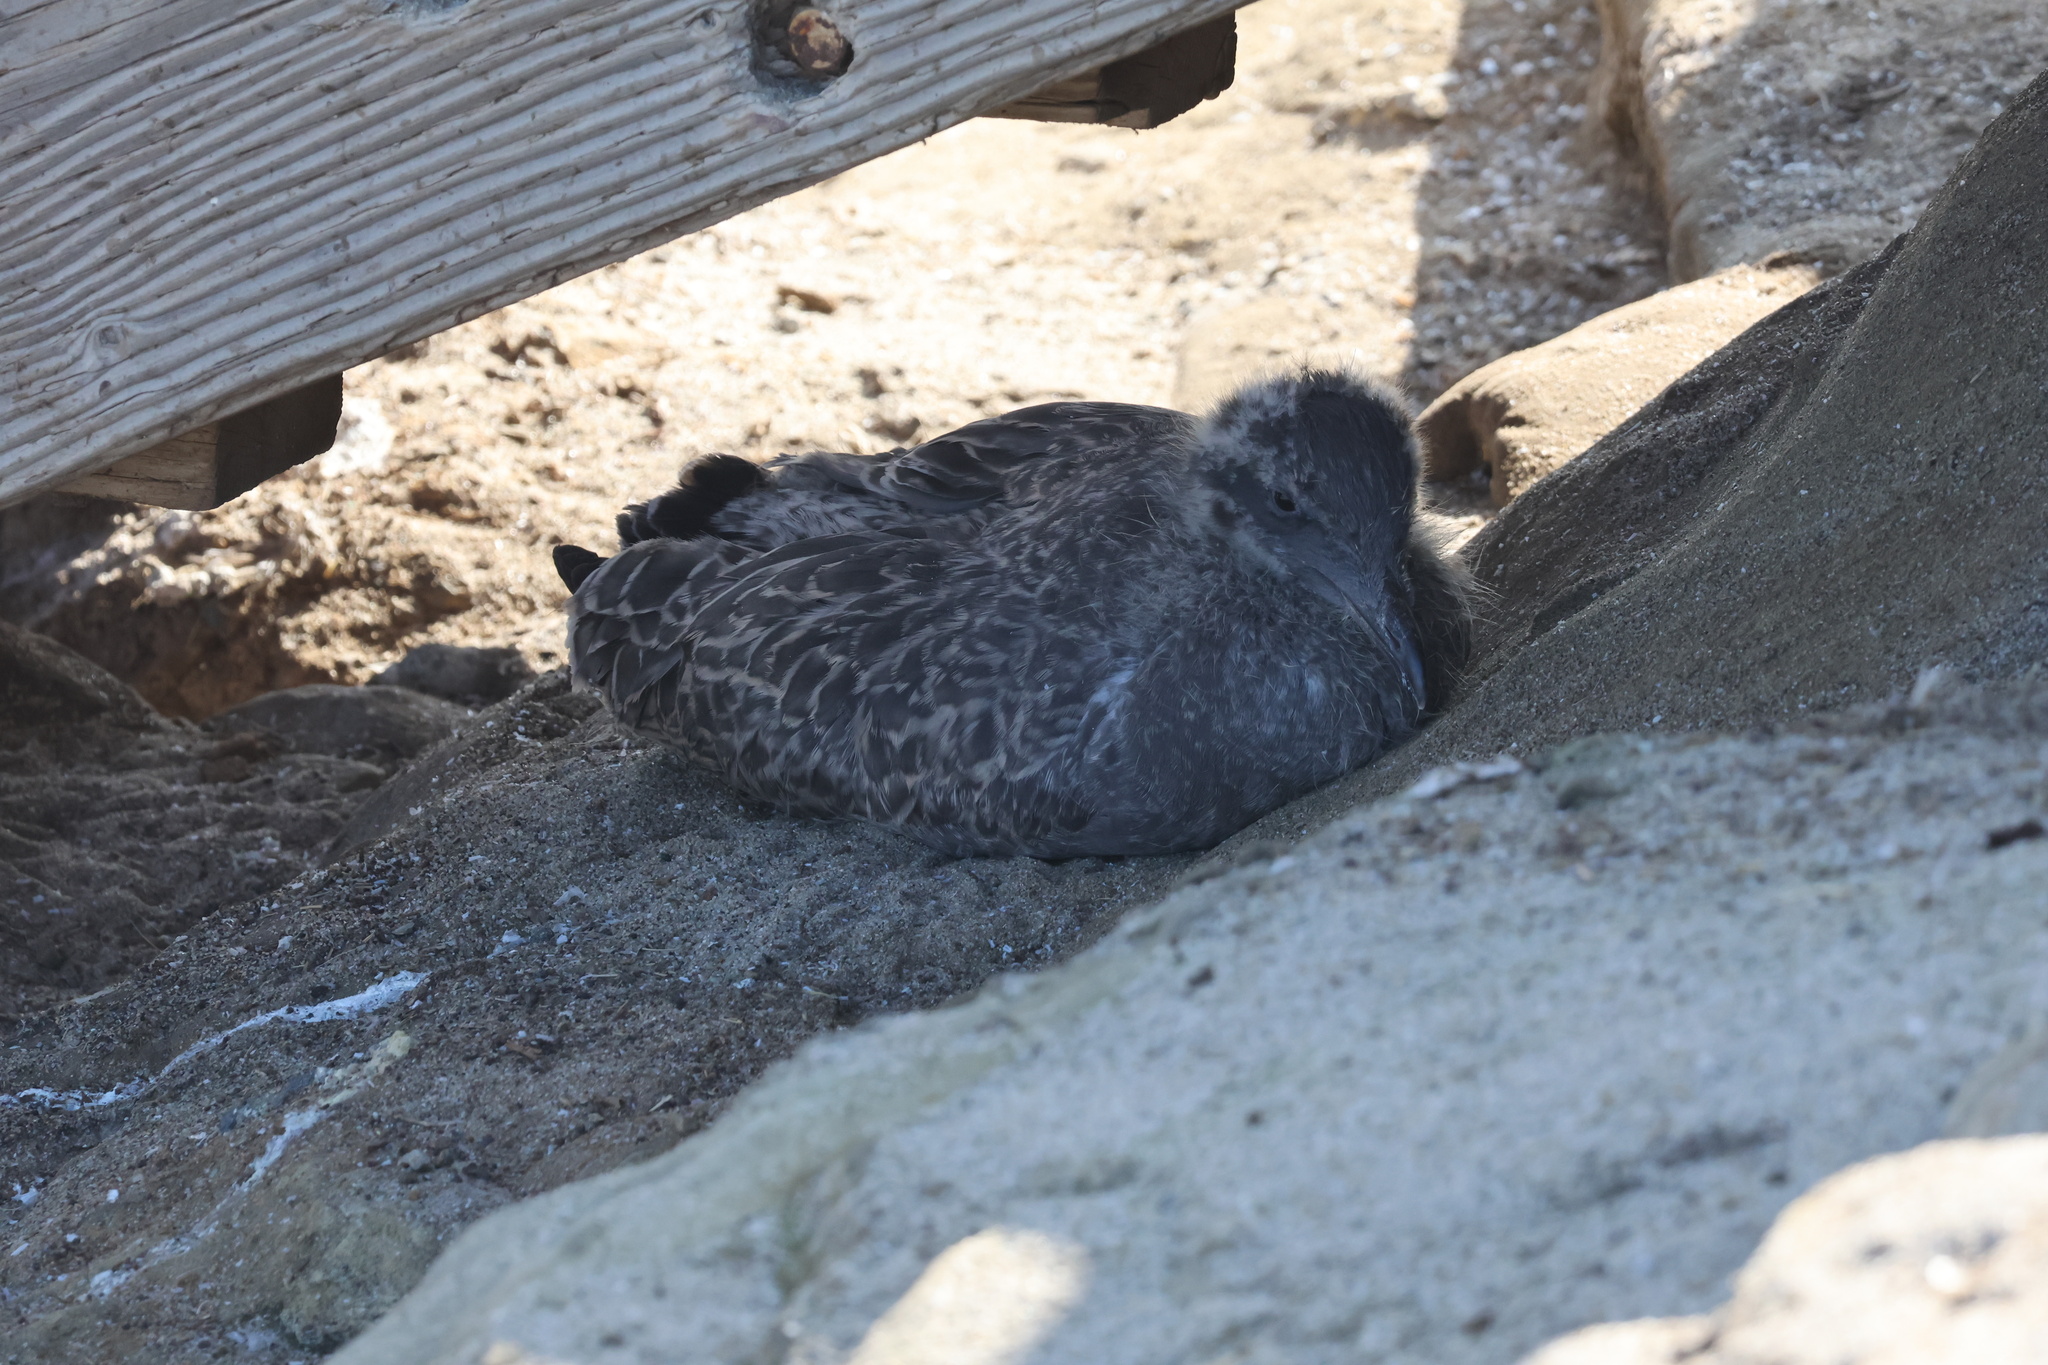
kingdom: Animalia
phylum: Chordata
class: Aves
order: Charadriiformes
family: Laridae
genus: Larus
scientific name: Larus occidentalis
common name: Western gull
